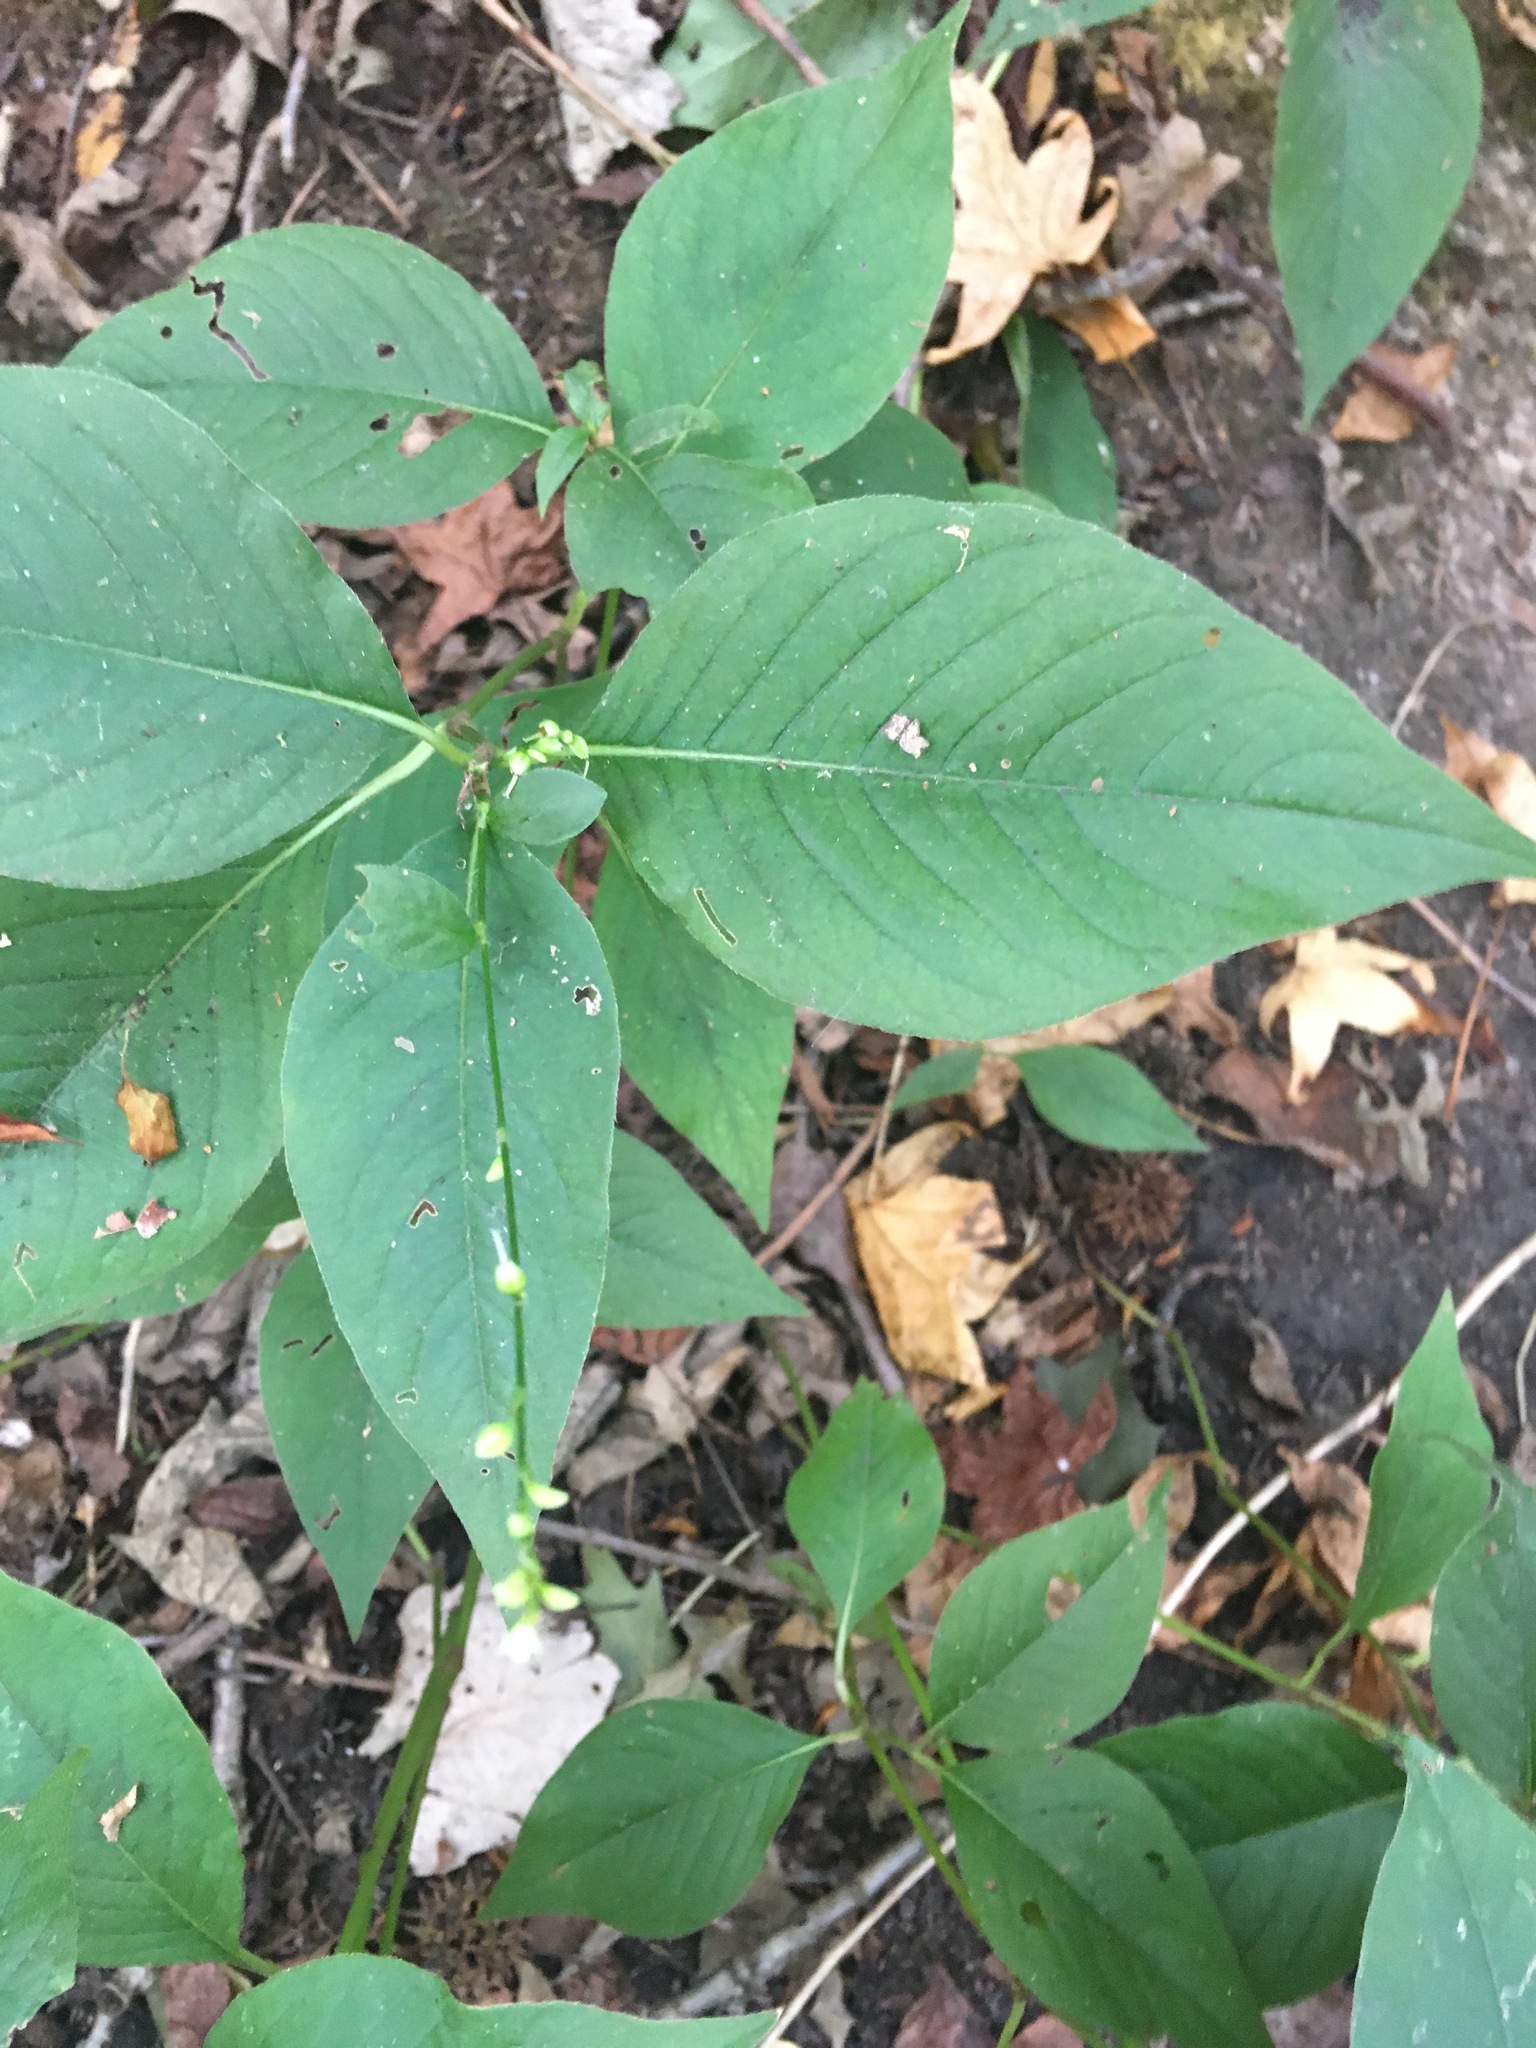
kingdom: Plantae
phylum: Tracheophyta
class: Magnoliopsida
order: Caryophyllales
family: Polygonaceae
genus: Persicaria
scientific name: Persicaria virginiana
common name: Jumpseed
